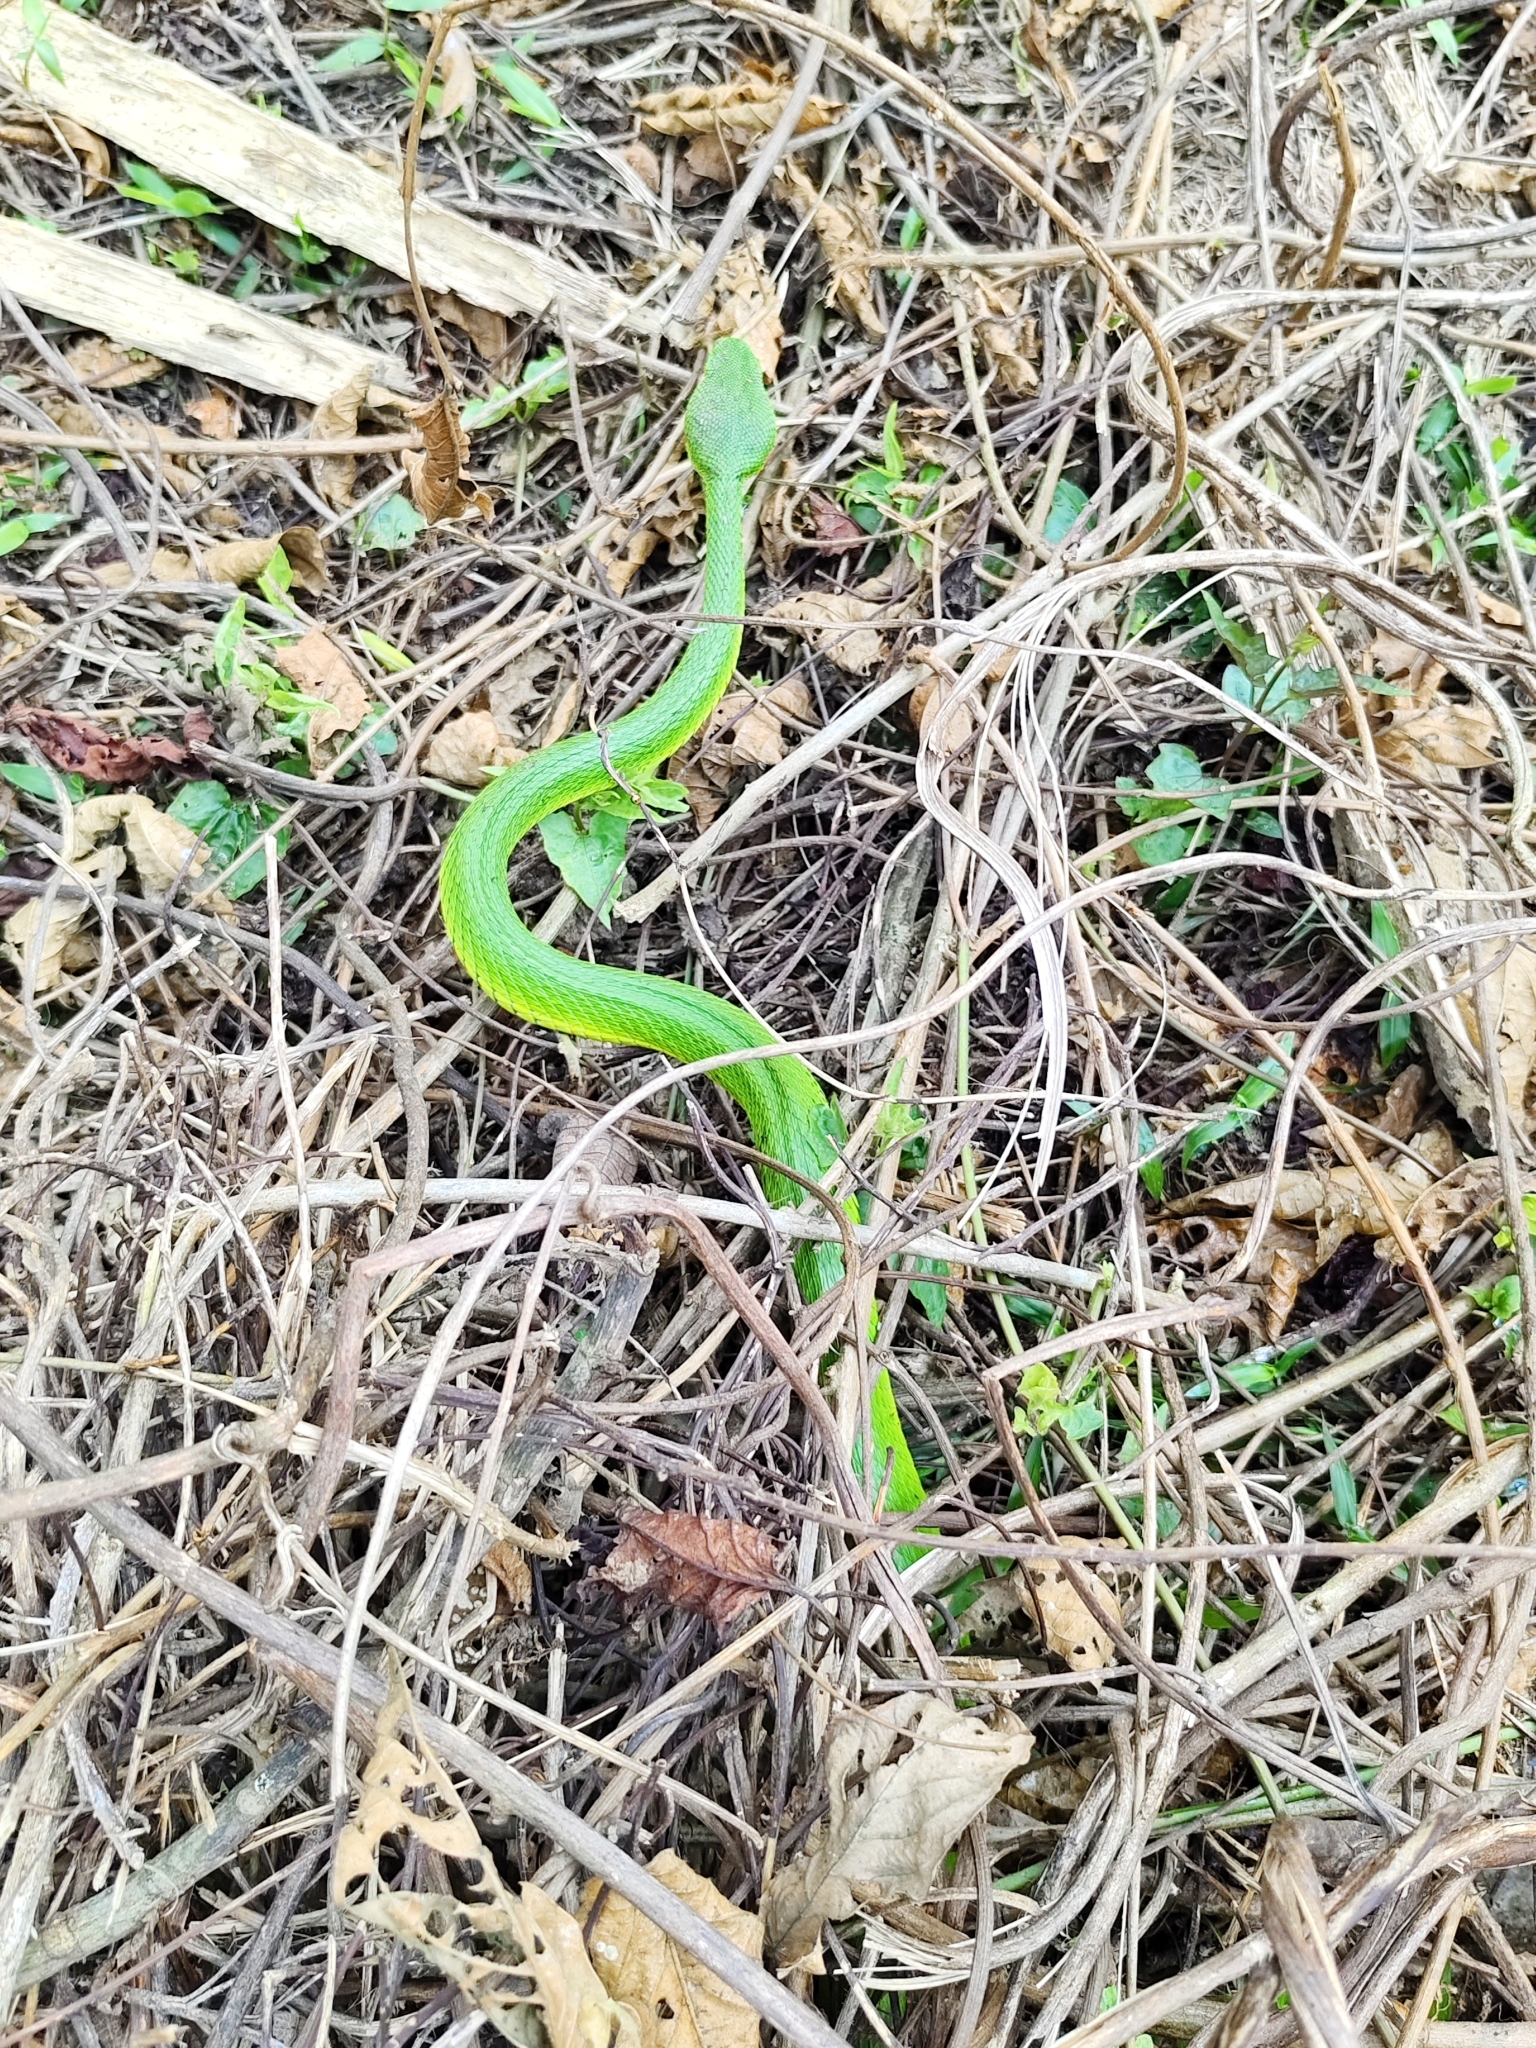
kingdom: Animalia
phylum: Chordata
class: Squamata
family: Viperidae
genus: Trimeresurus
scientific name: Trimeresurus erythrurus
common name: Redtail (bamboo) pit viper
